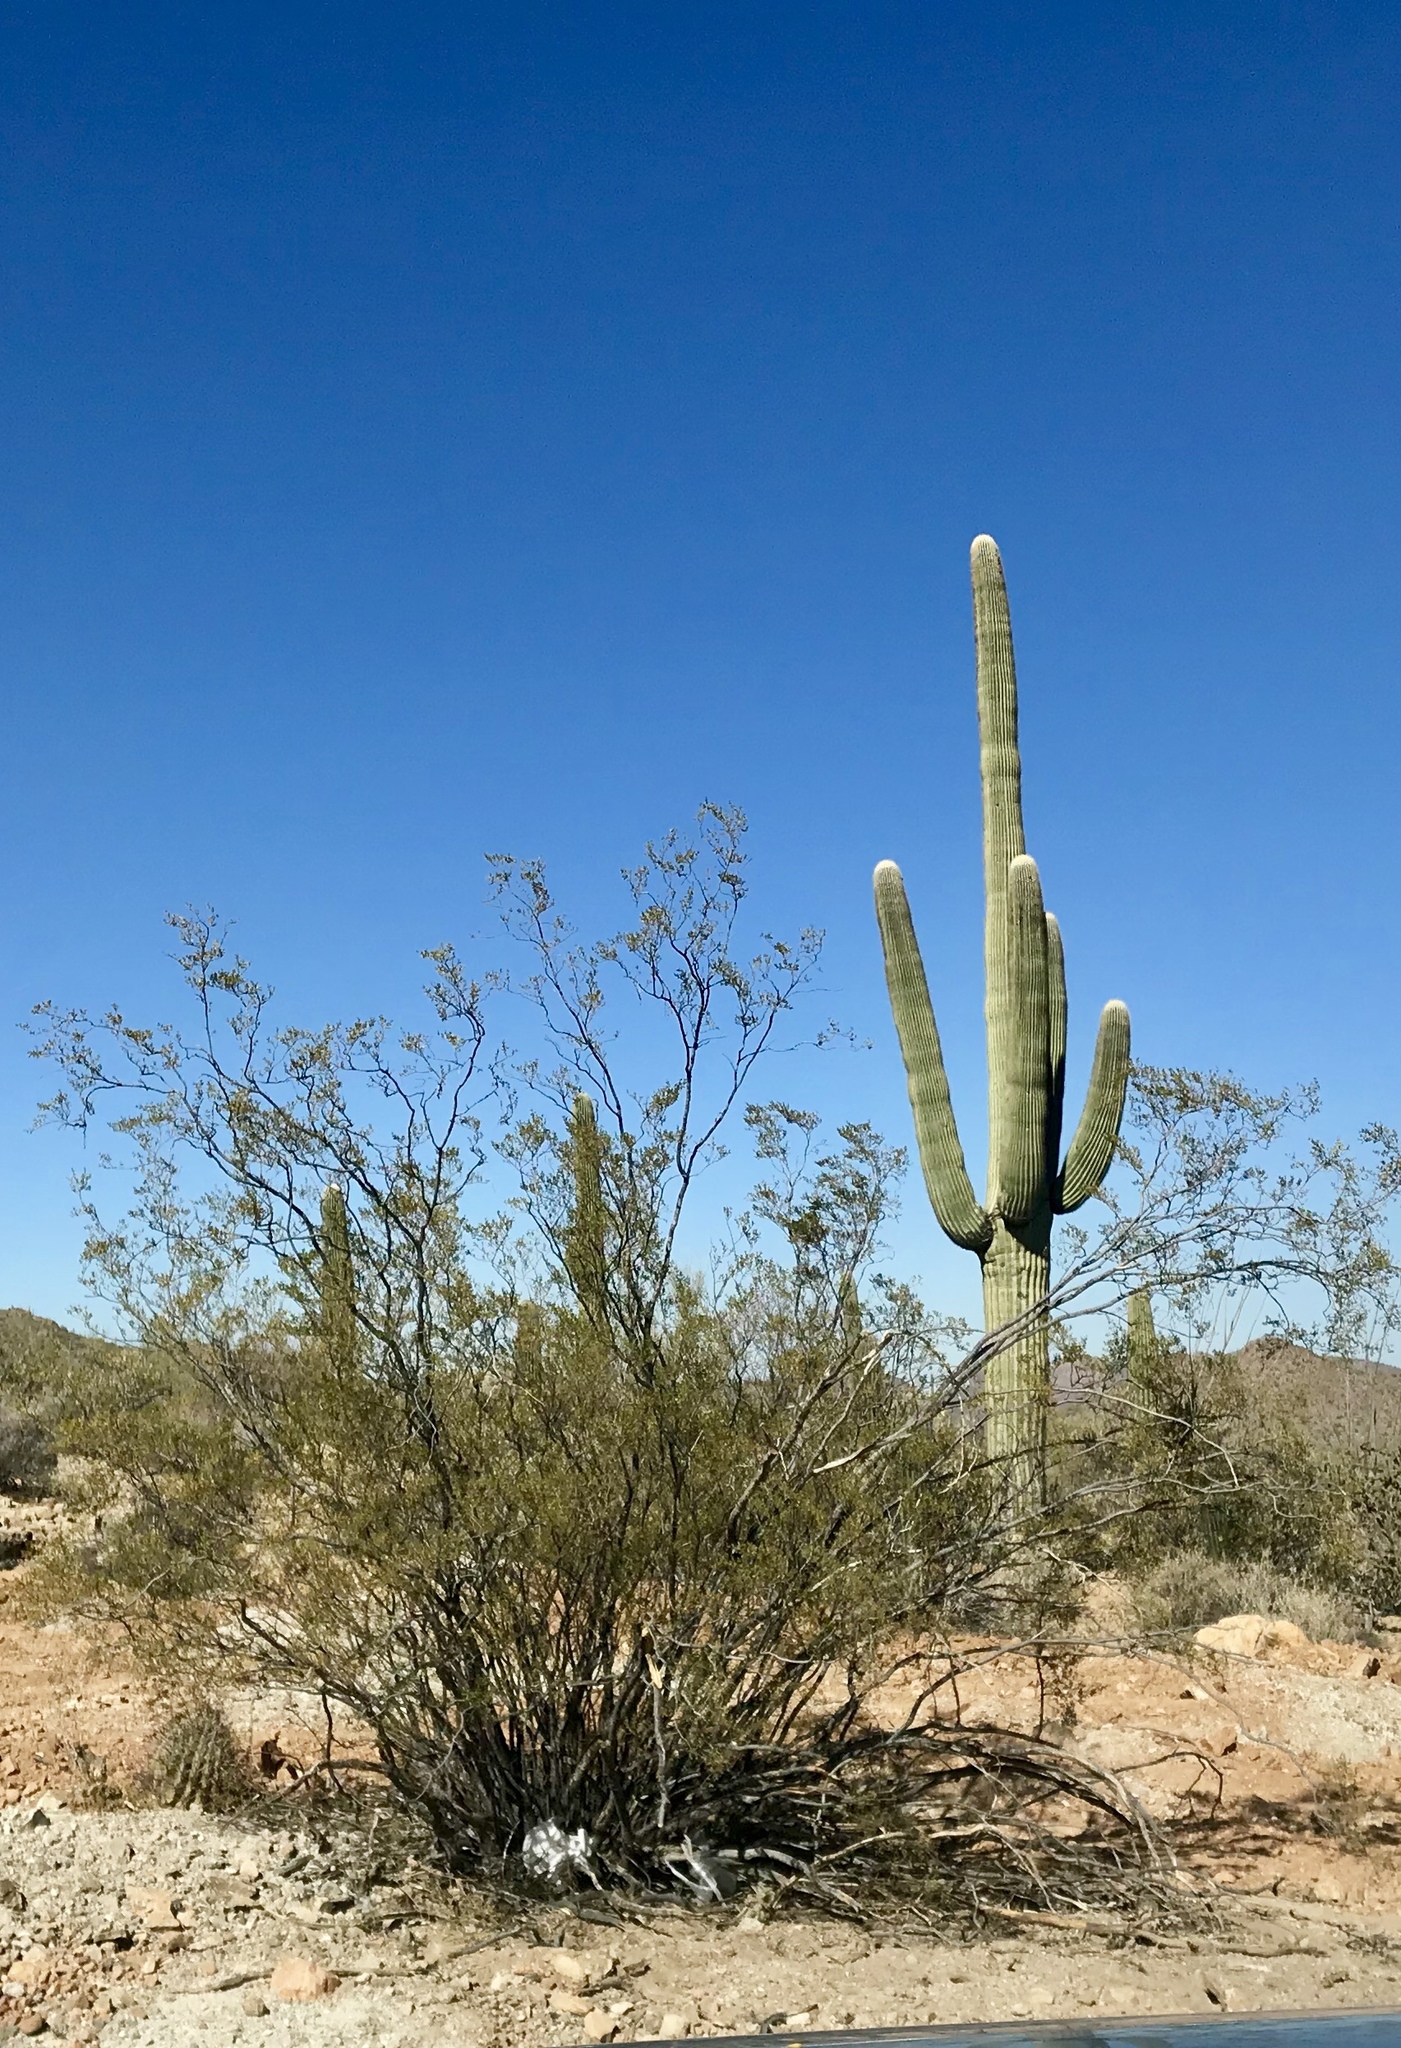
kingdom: Plantae
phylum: Tracheophyta
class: Magnoliopsida
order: Zygophyllales
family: Zygophyllaceae
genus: Larrea
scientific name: Larrea tridentata
